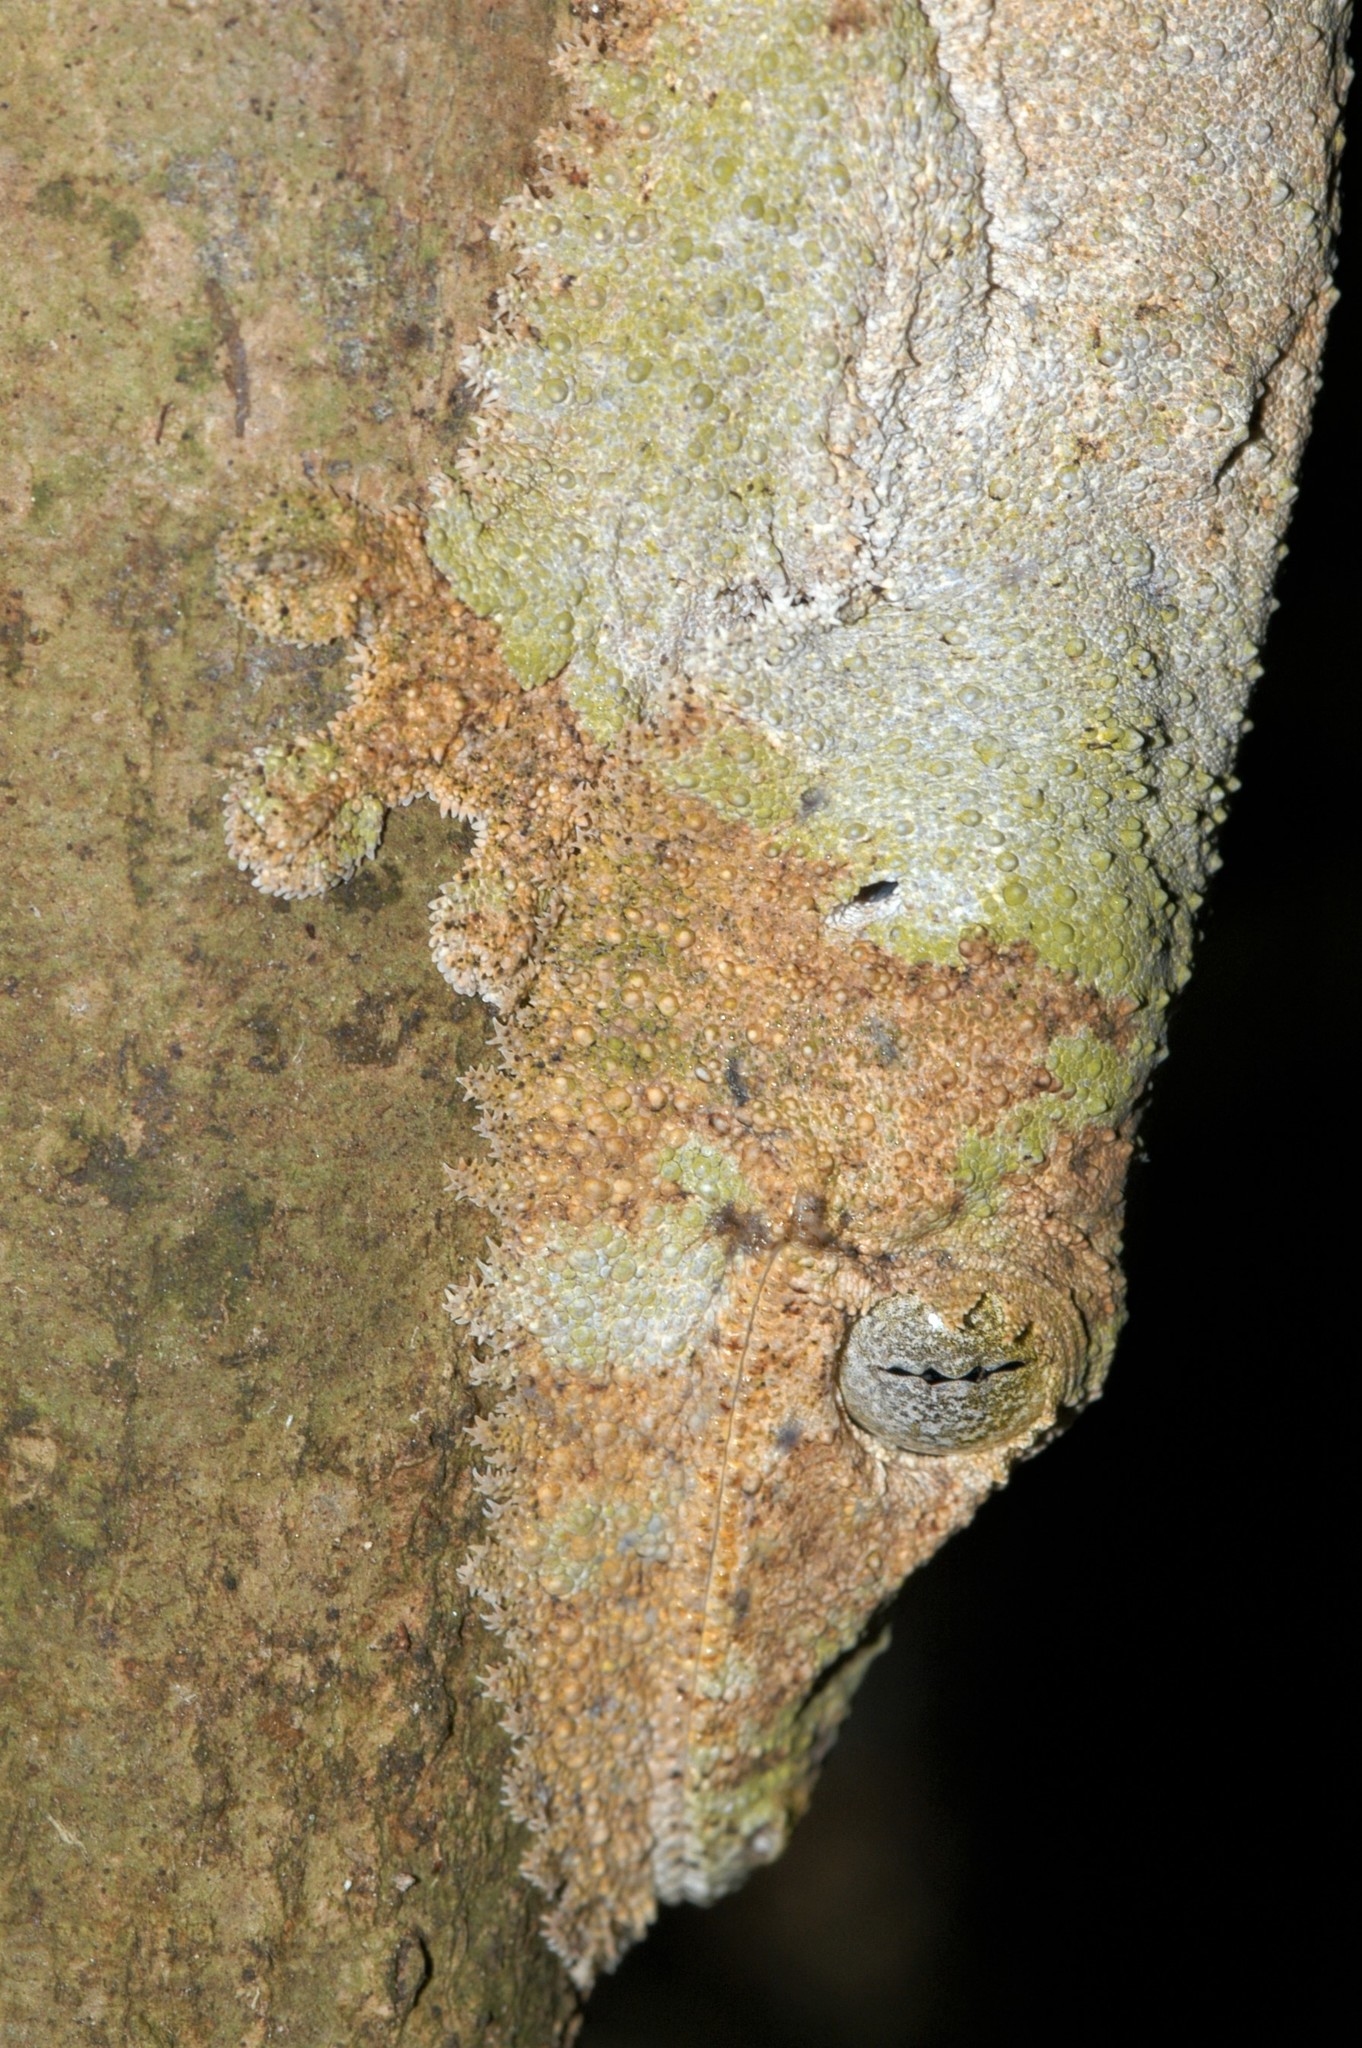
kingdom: Animalia
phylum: Chordata
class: Squamata
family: Gekkonidae
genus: Uroplatus
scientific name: Uroplatus sikorae
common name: Southern flat-tail gecko
